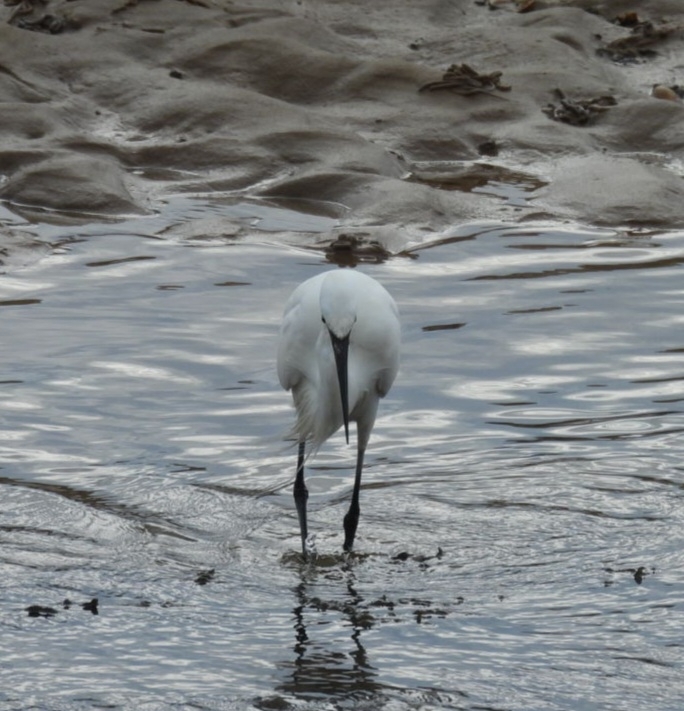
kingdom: Animalia
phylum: Chordata
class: Aves
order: Pelecaniformes
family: Ardeidae
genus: Egretta
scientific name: Egretta garzetta
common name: Little egret
